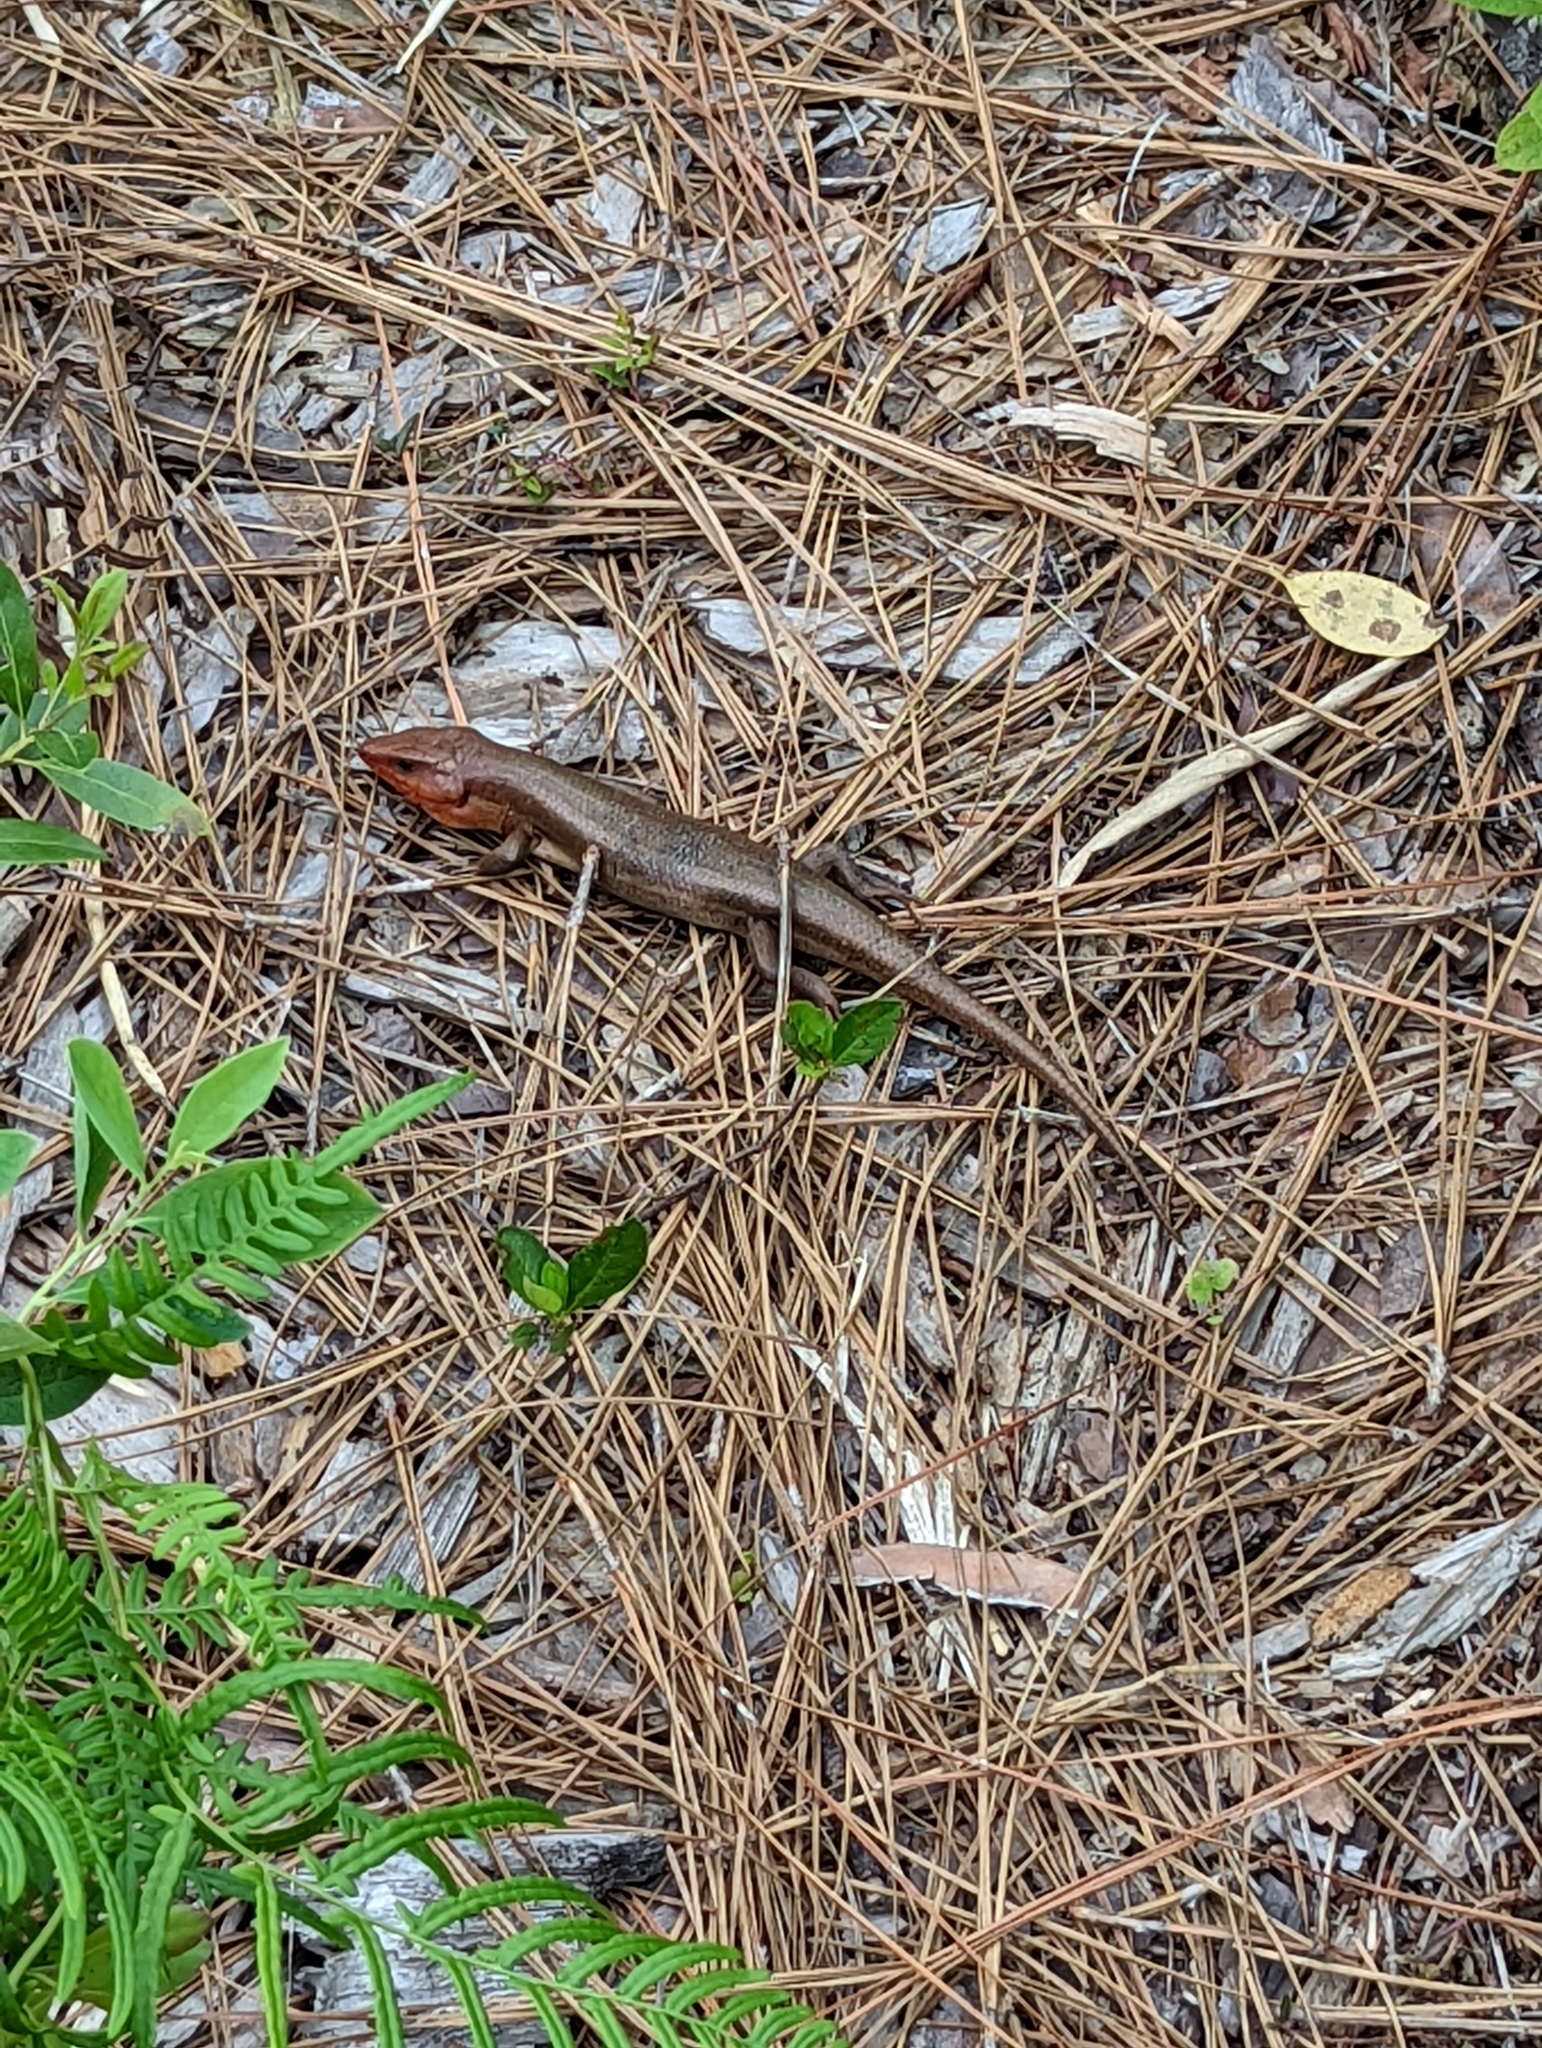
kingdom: Animalia
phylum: Chordata
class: Squamata
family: Scincidae
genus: Plestiodon
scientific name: Plestiodon laticeps
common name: Broadhead skink
